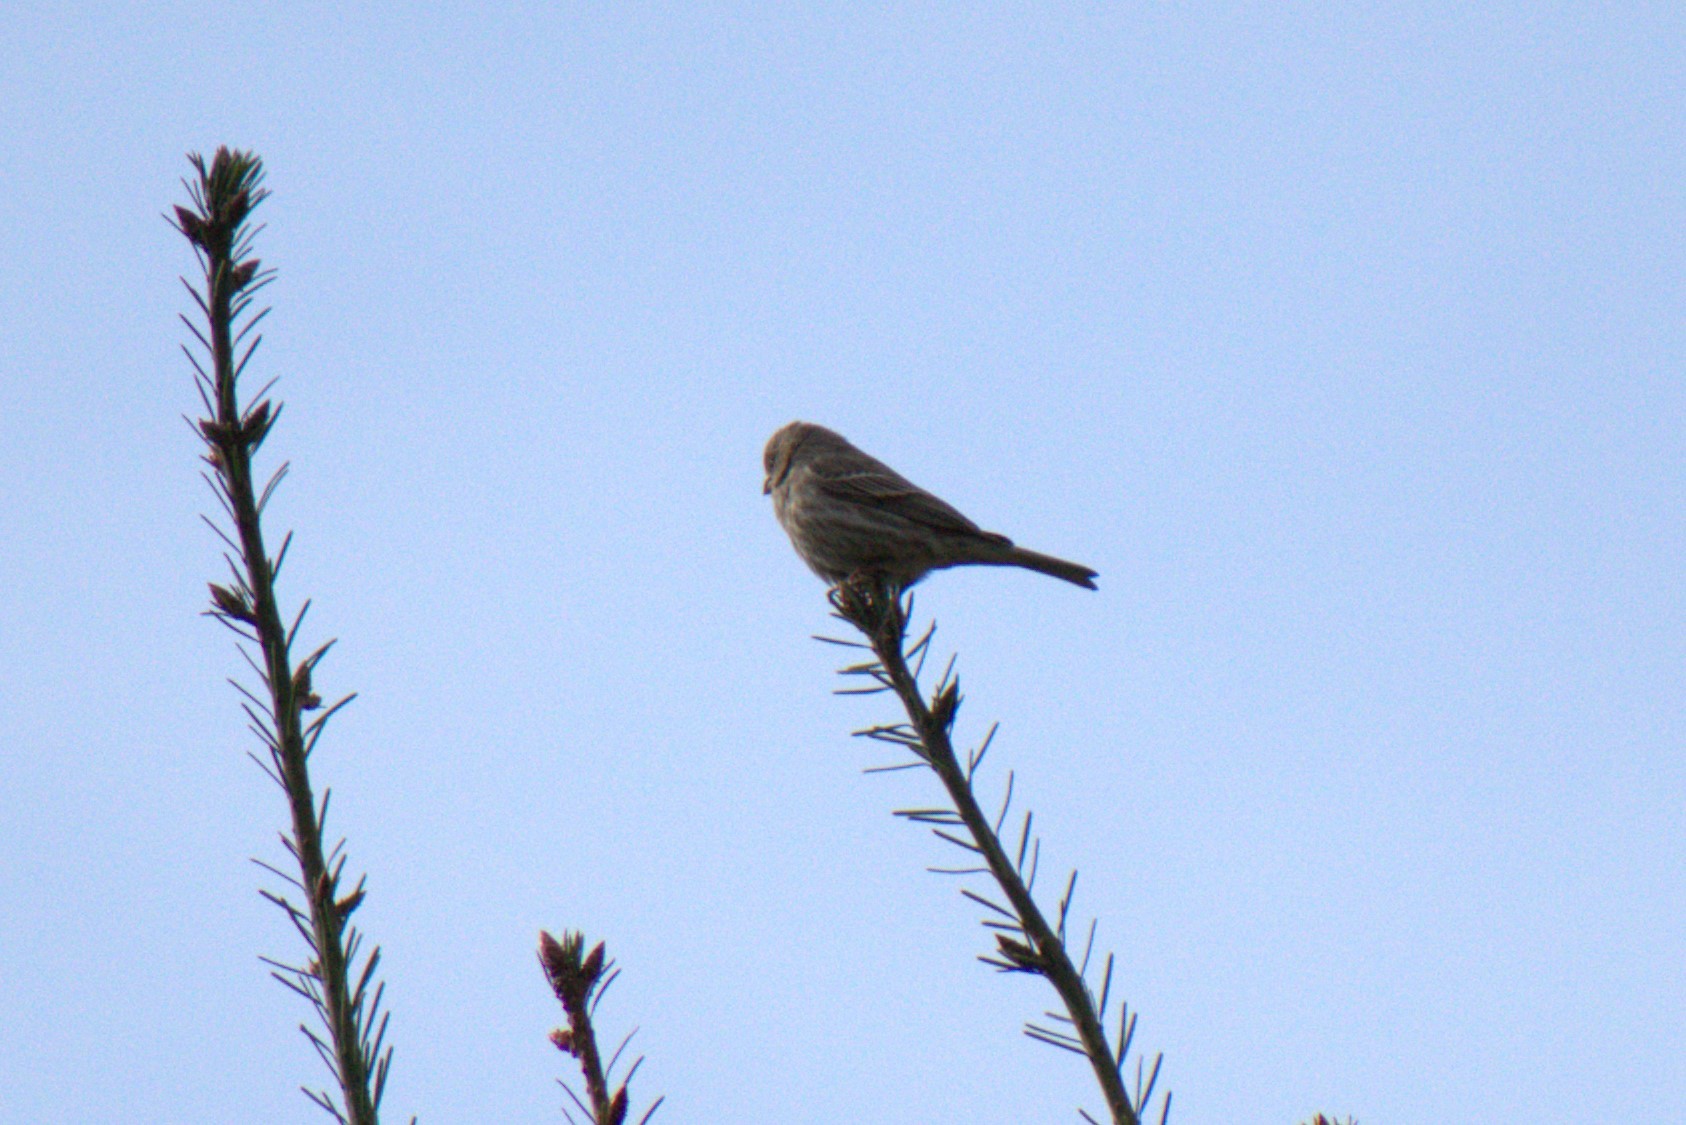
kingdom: Animalia
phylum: Chordata
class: Aves
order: Passeriformes
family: Fringillidae
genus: Haemorhous
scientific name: Haemorhous mexicanus
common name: House finch
